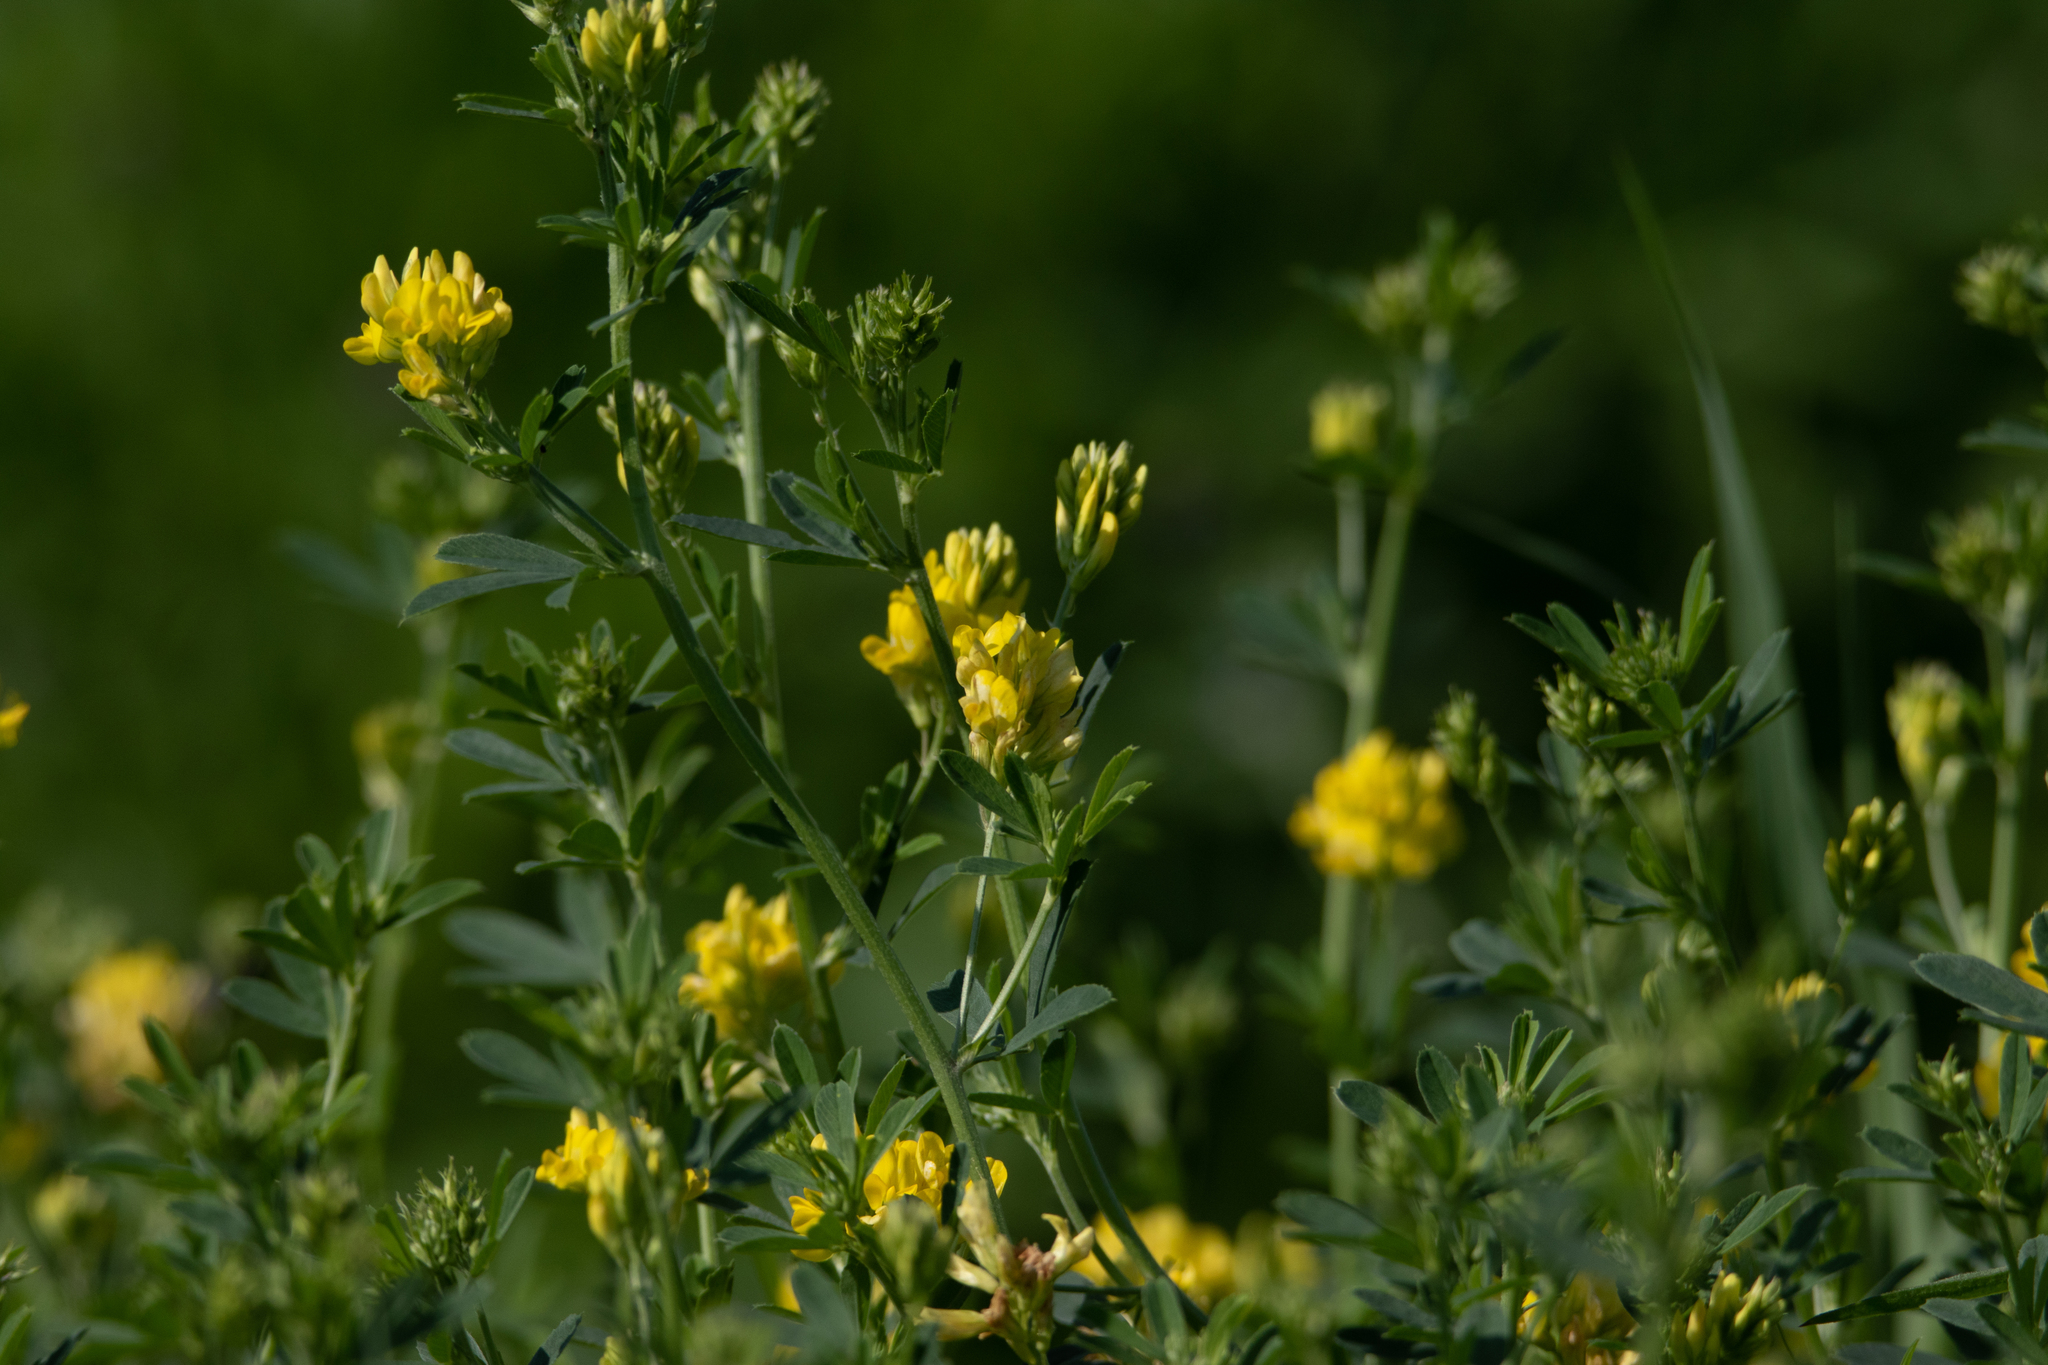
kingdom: Plantae
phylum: Tracheophyta
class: Magnoliopsida
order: Fabales
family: Fabaceae
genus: Medicago
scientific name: Medicago falcata
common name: Sickle medick
